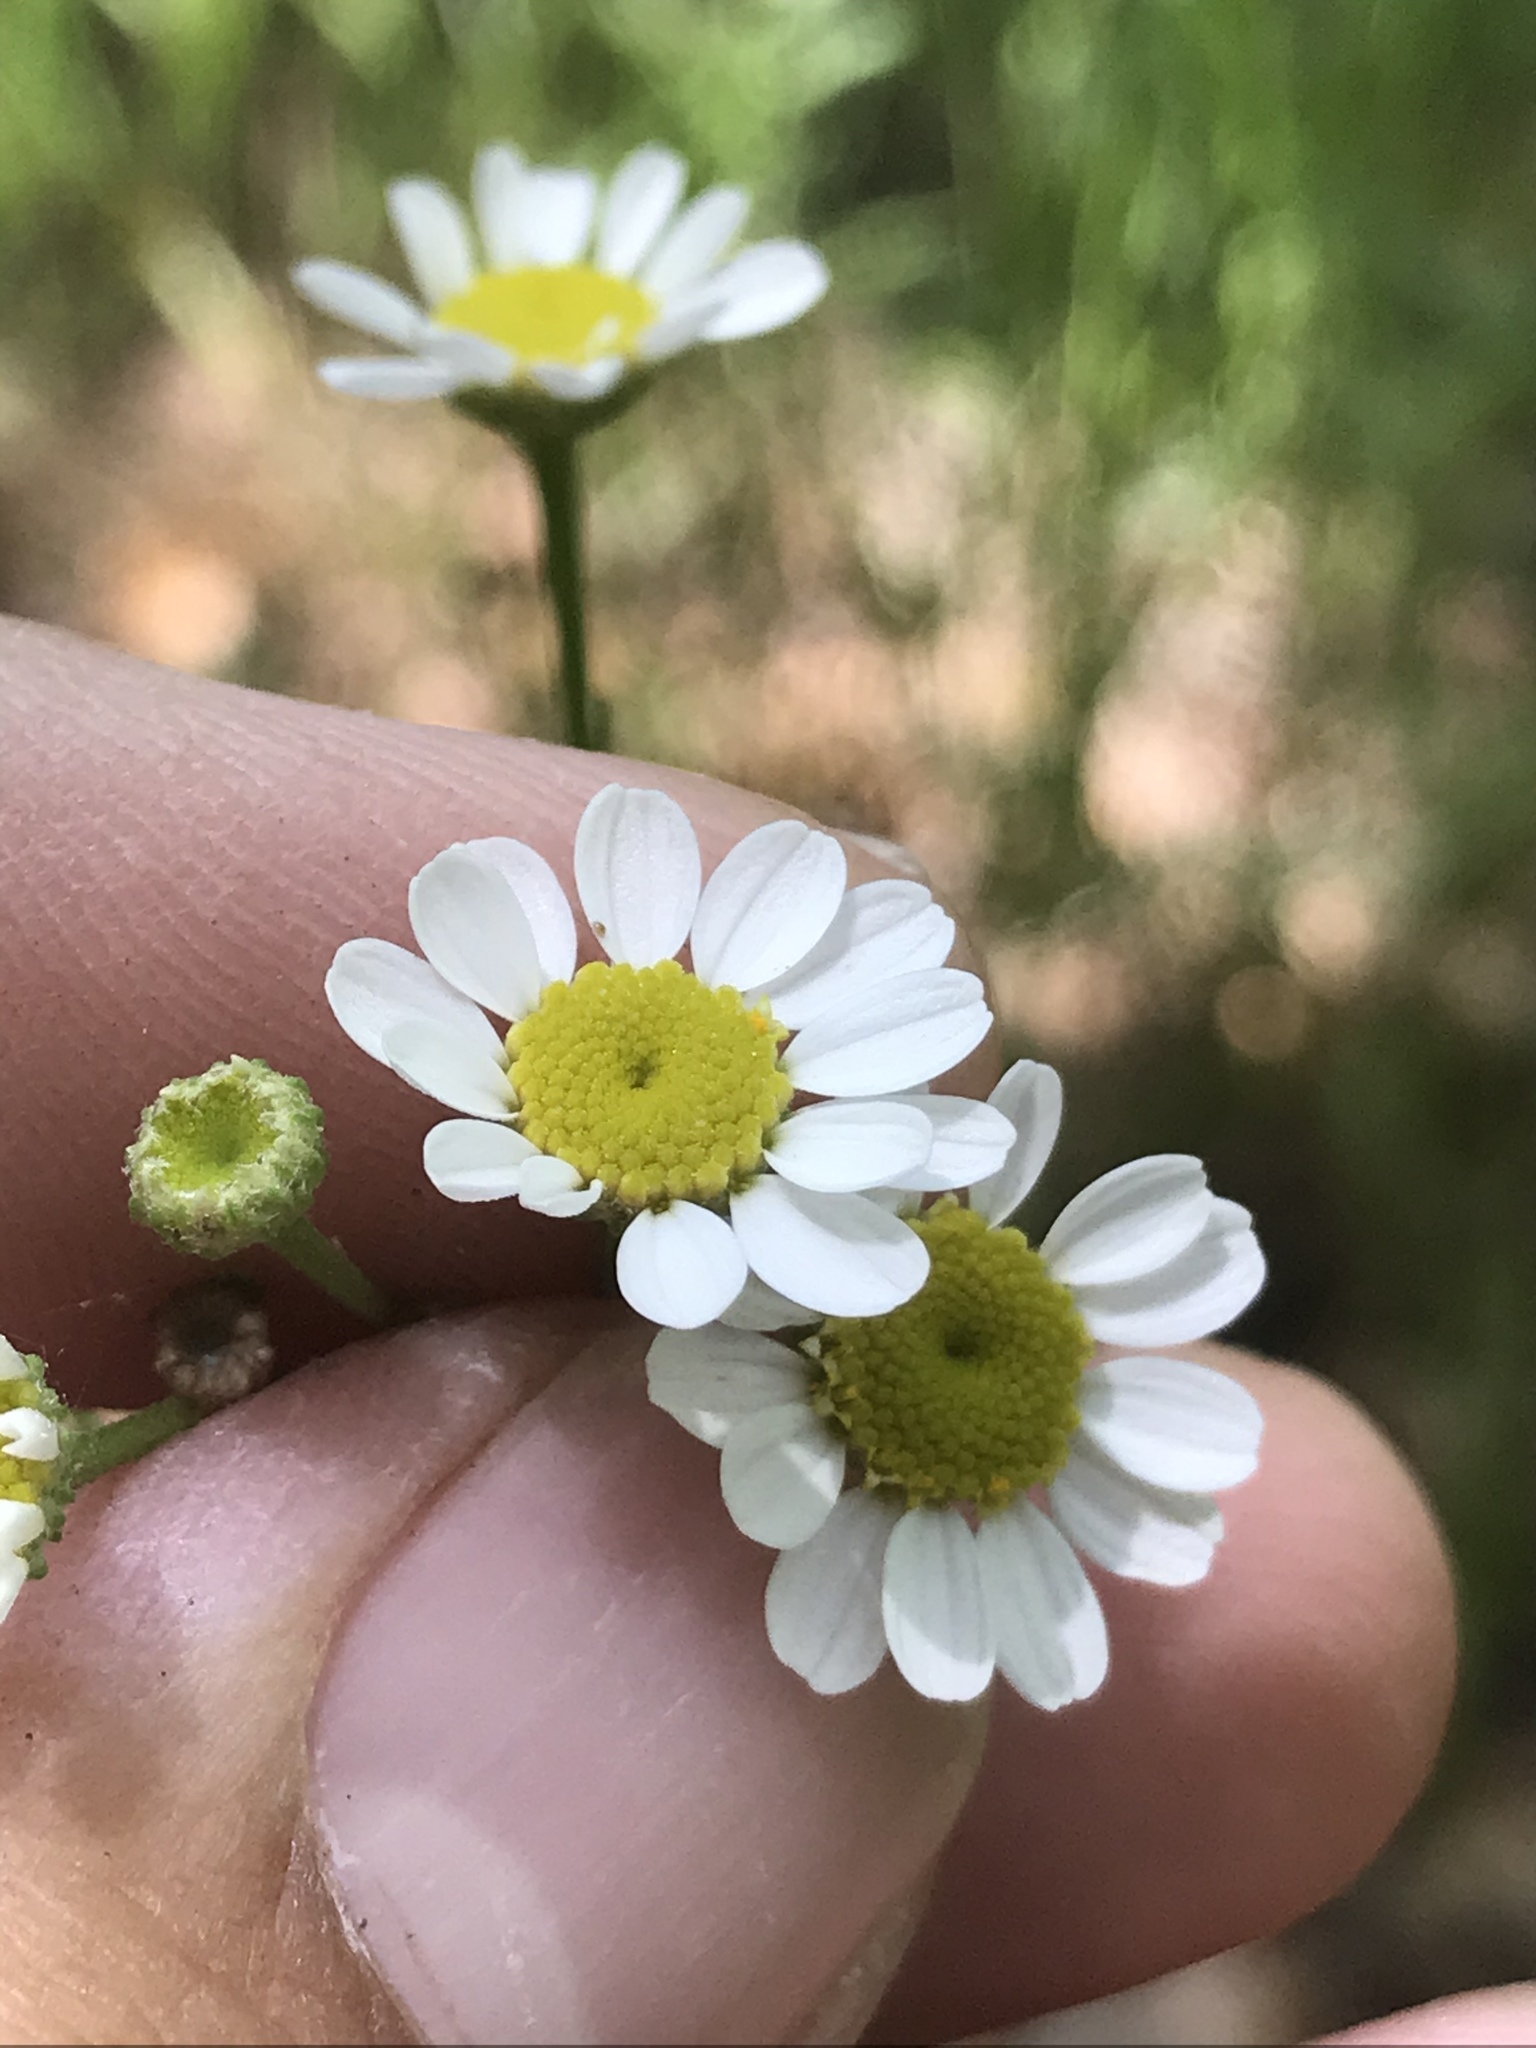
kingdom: Plantae
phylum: Tracheophyta
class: Magnoliopsida
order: Asterales
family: Asteraceae
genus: Tanacetum
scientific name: Tanacetum parthenium
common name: Feverfew
